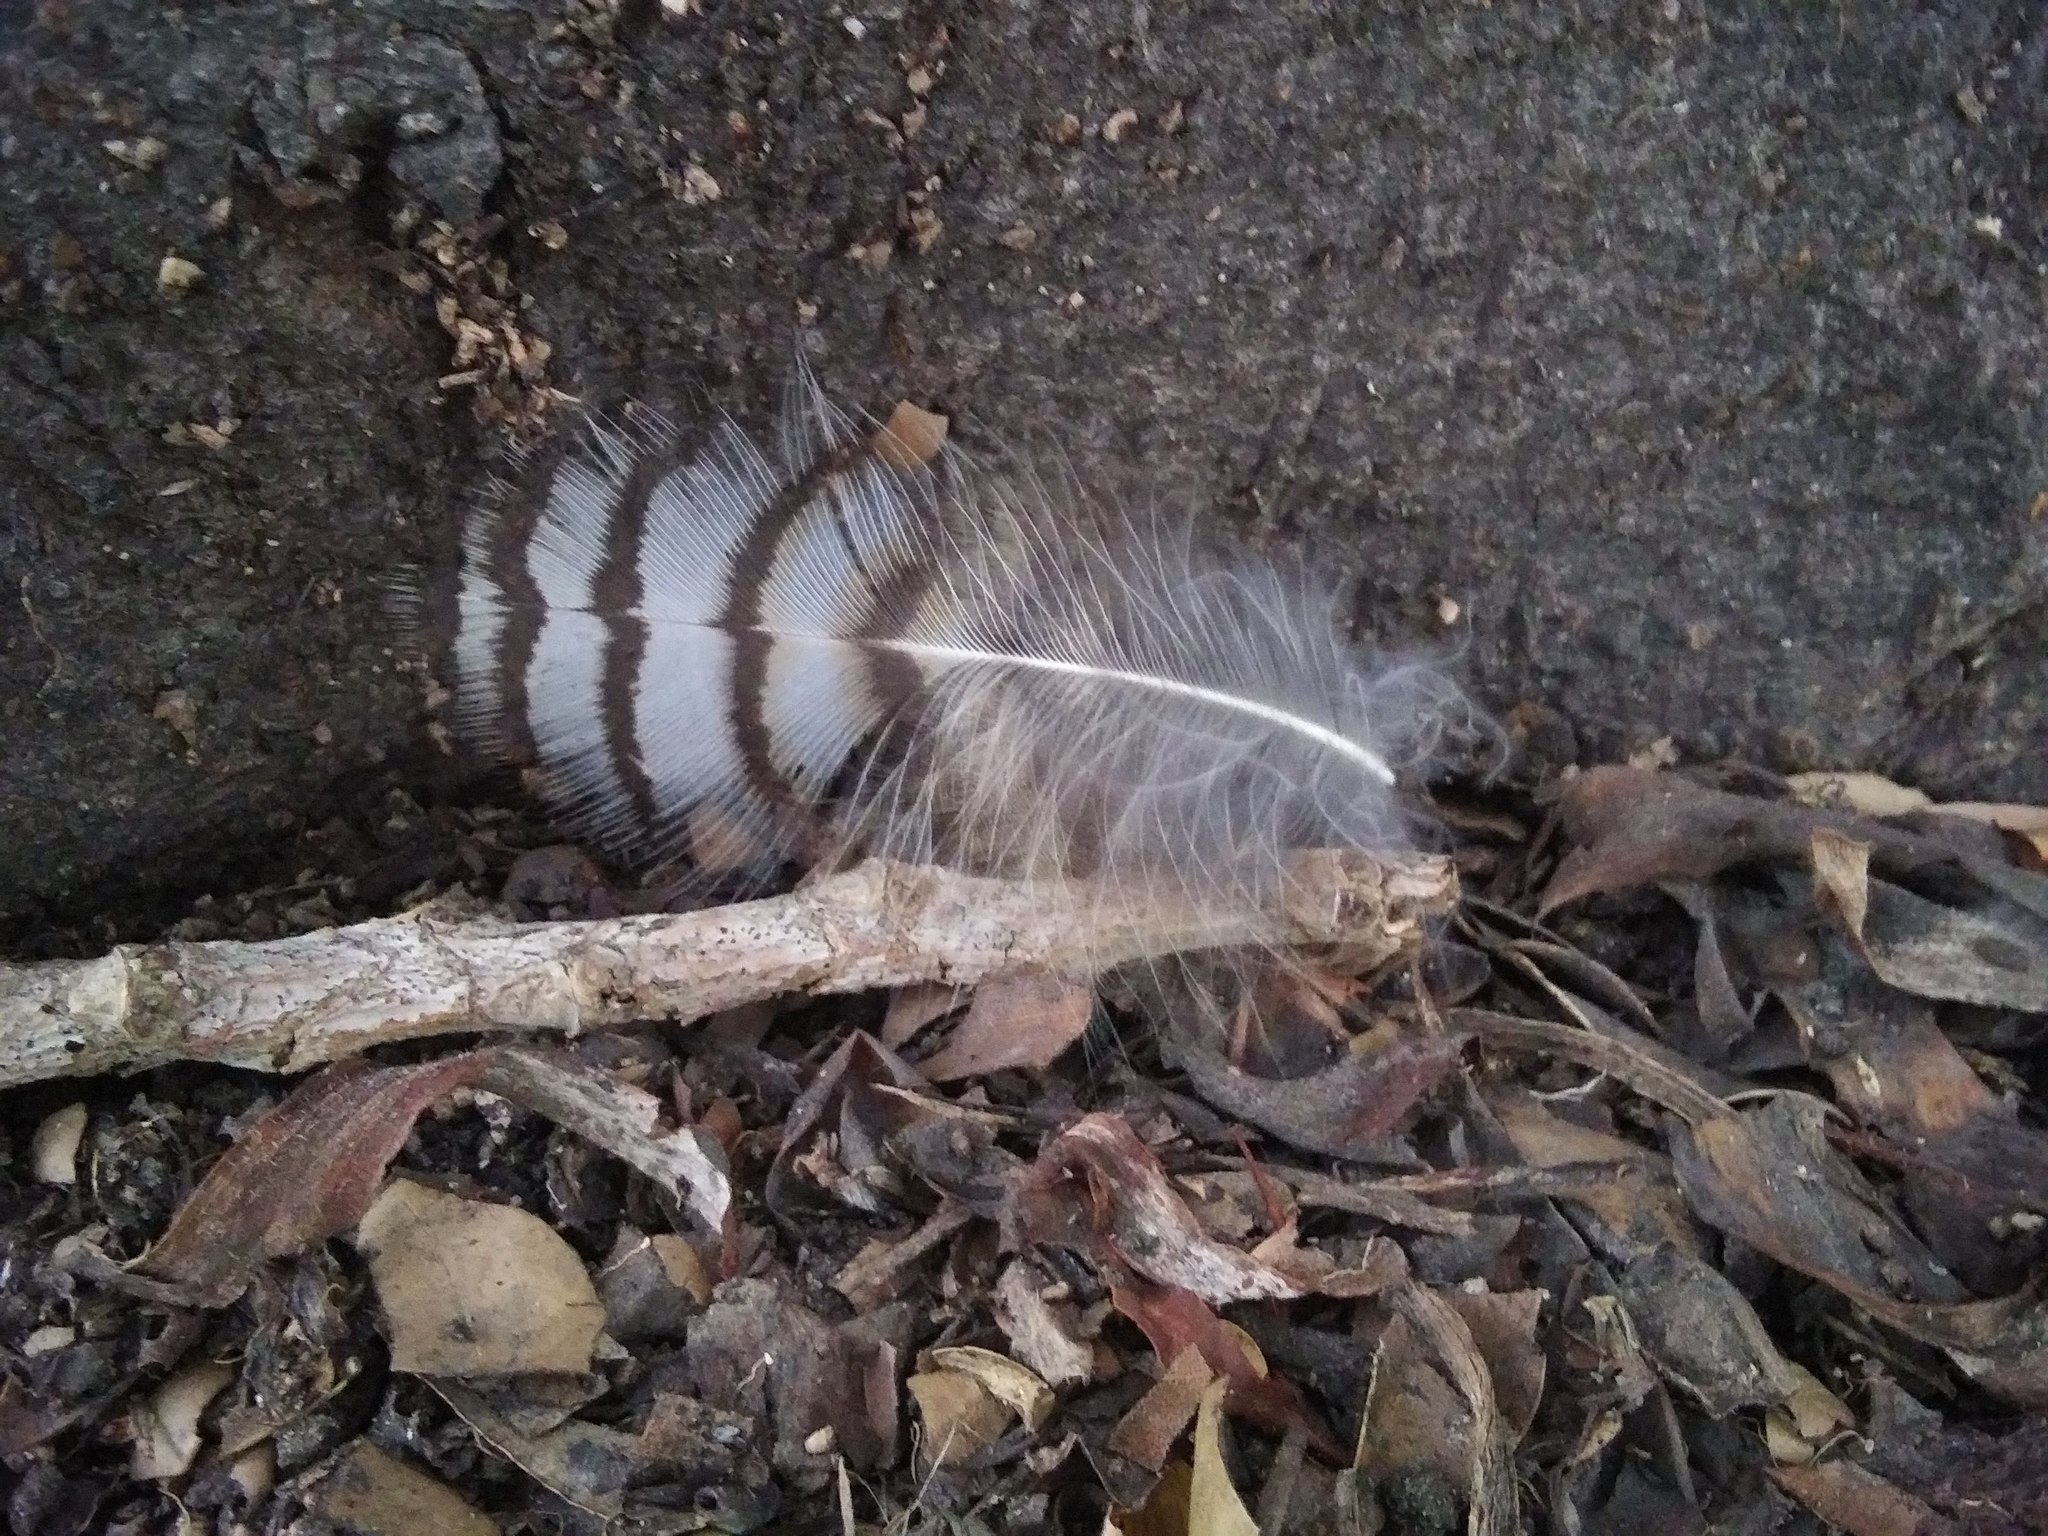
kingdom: Animalia
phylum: Chordata
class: Aves
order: Strigiformes
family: Strigidae
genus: Bubo
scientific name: Bubo virginianus
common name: Great horned owl
